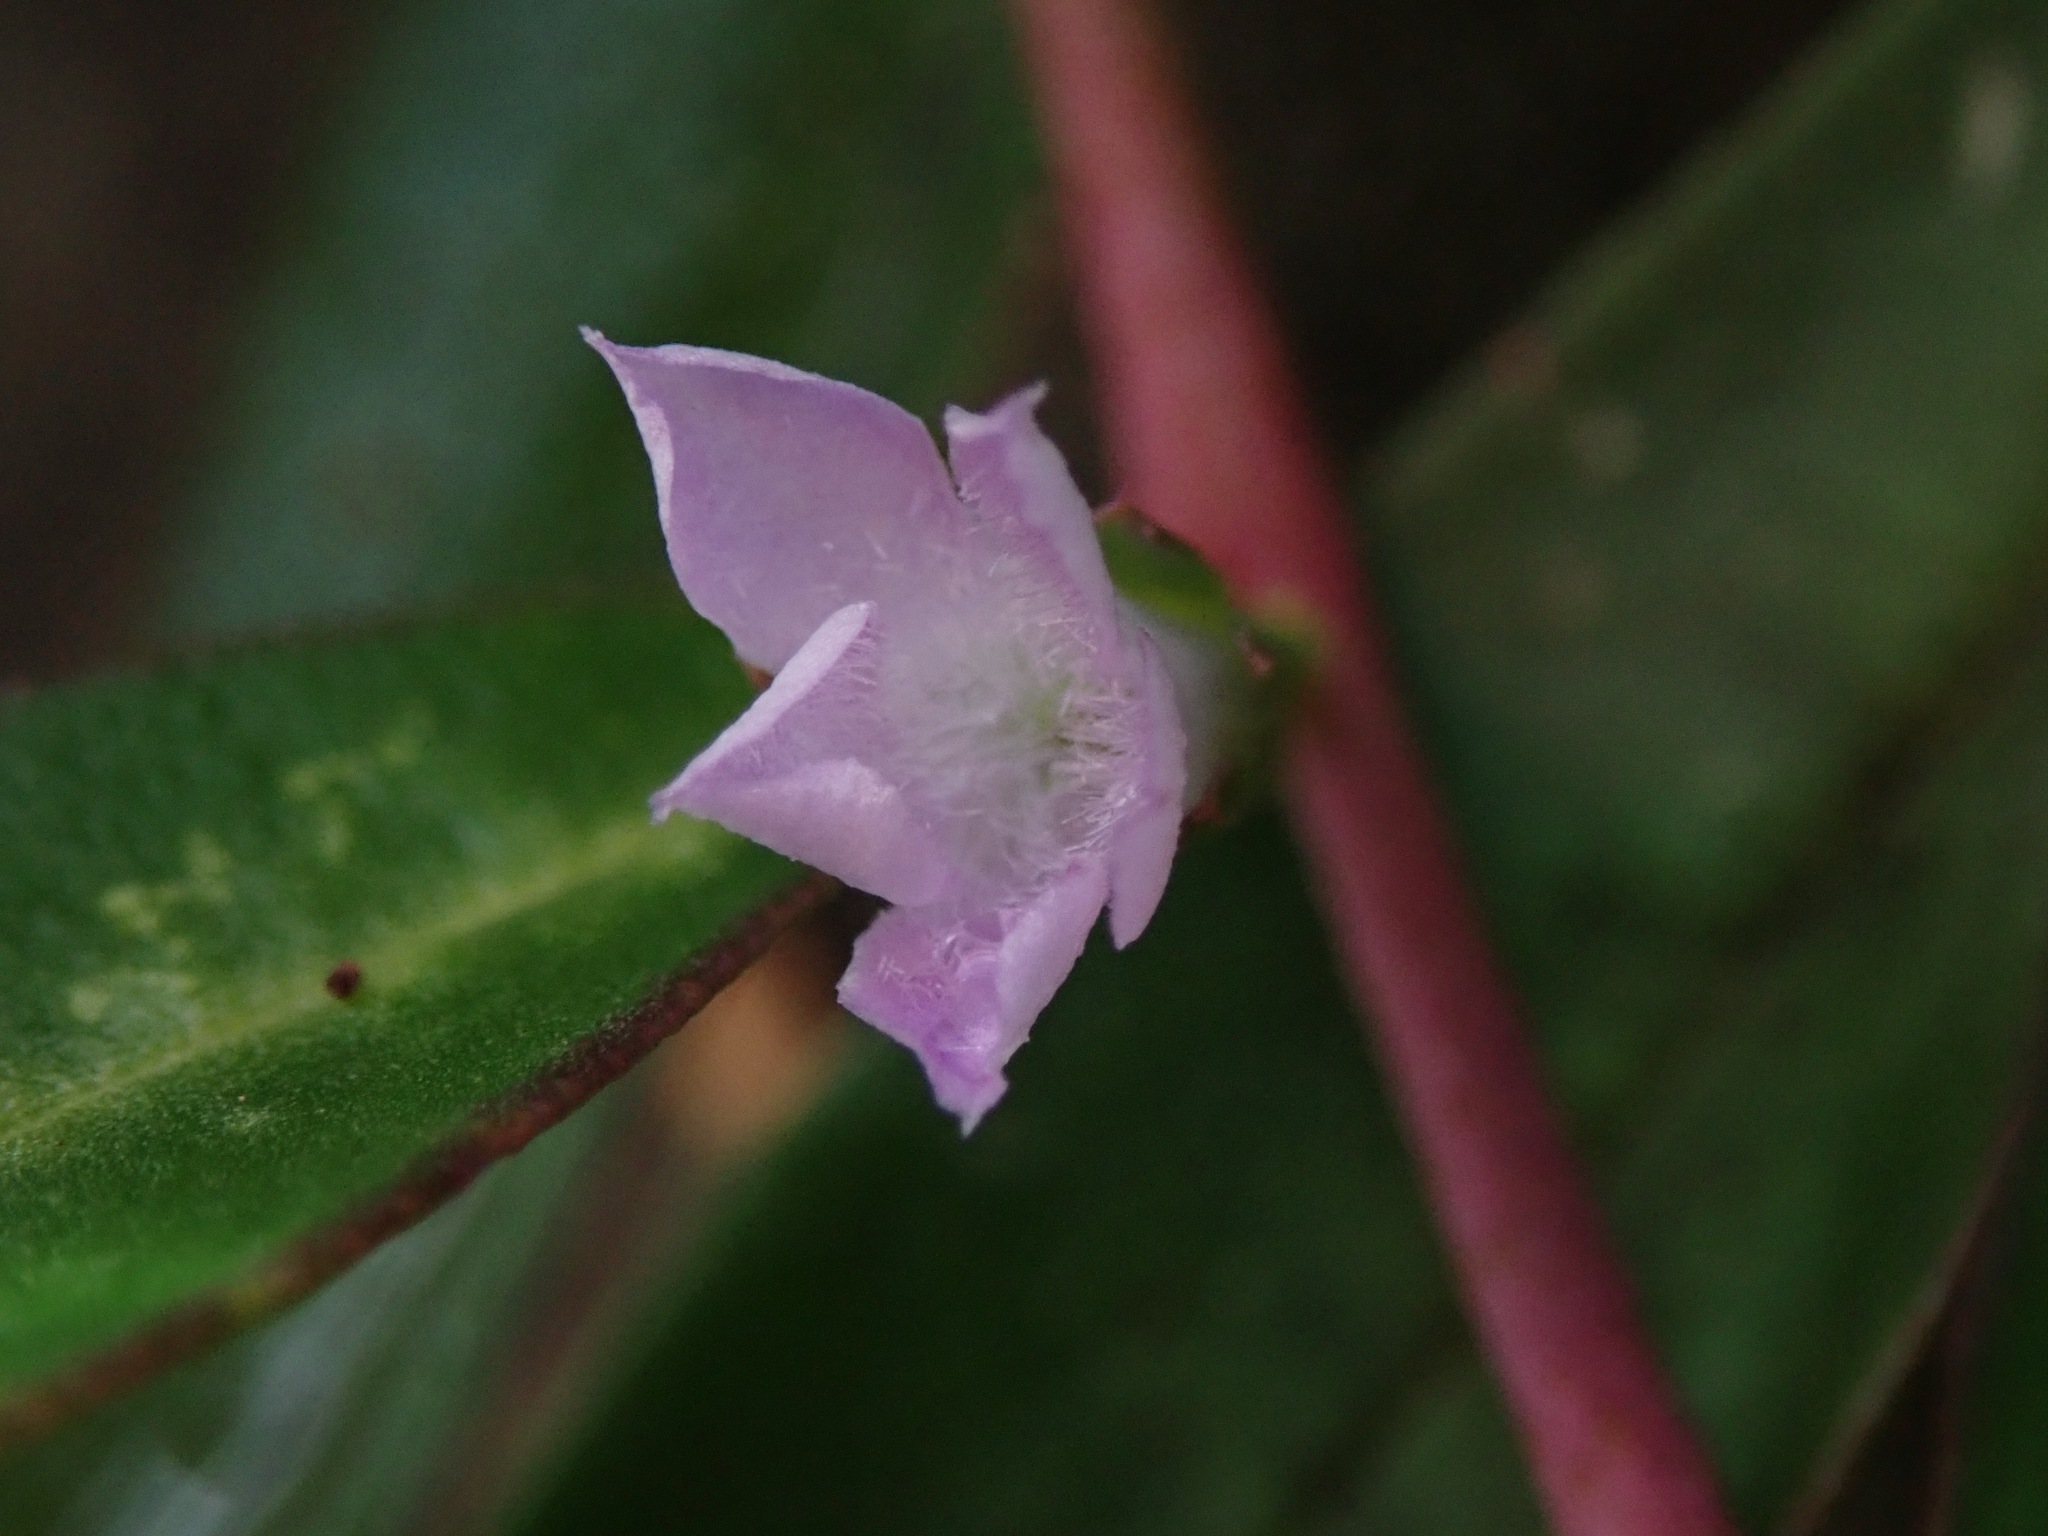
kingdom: Plantae
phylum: Tracheophyta
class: Magnoliopsida
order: Lamiales
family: Scrophulariaceae
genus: Eremophila
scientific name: Eremophila debilis
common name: Winter-apple
